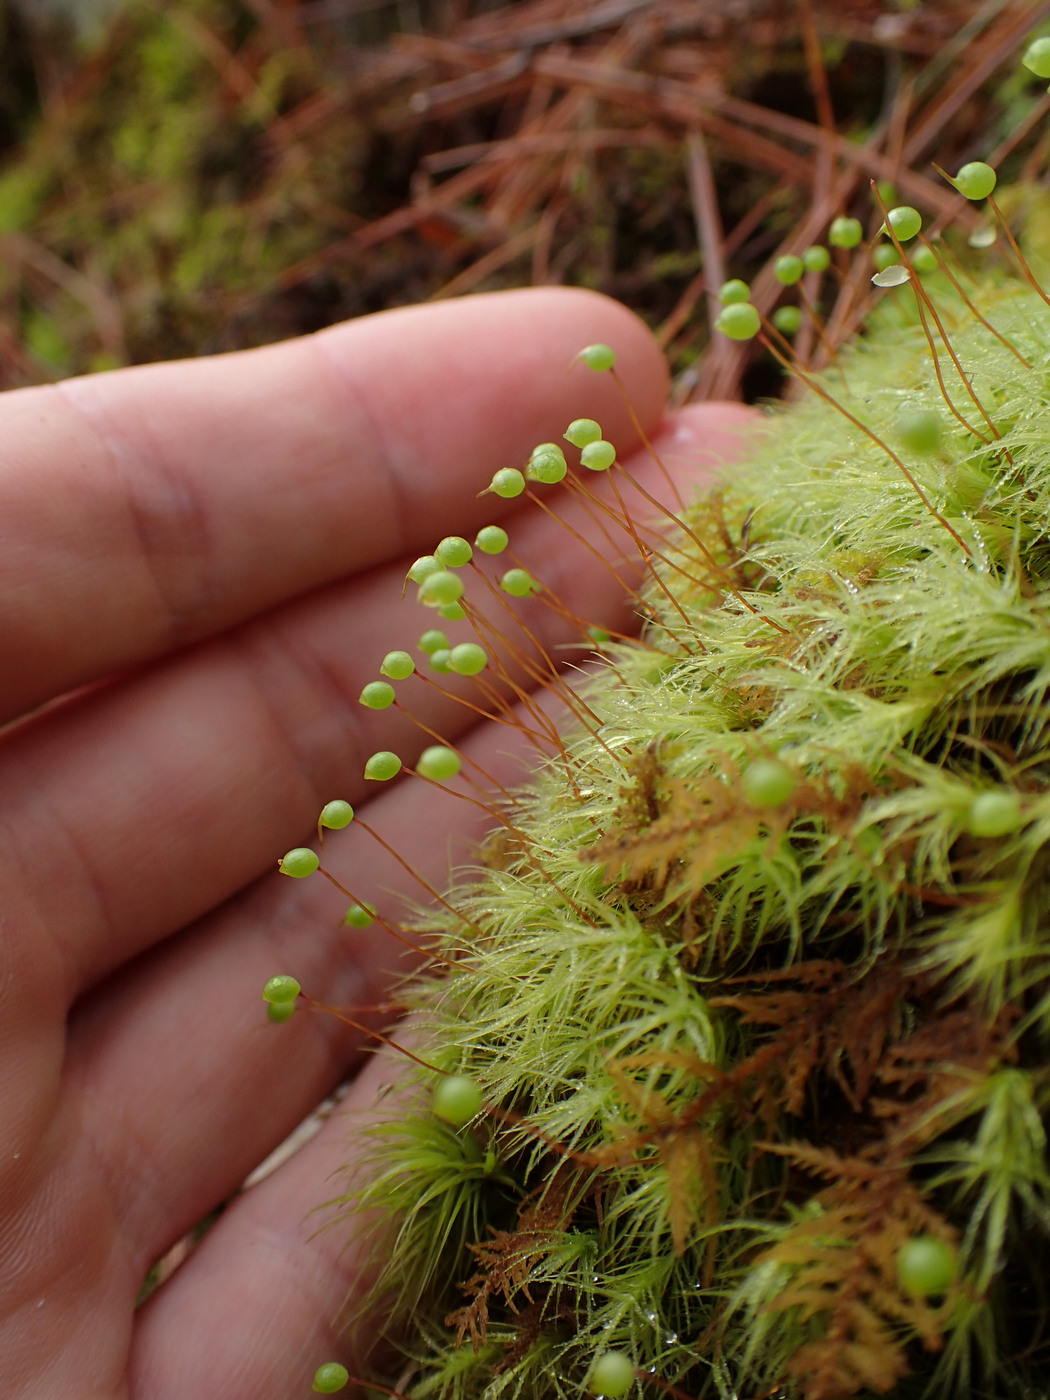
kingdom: Plantae
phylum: Bryophyta
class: Bryopsida
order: Bartramiales
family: Bartramiaceae
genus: Bartramia
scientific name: Bartramia ithyphylla
